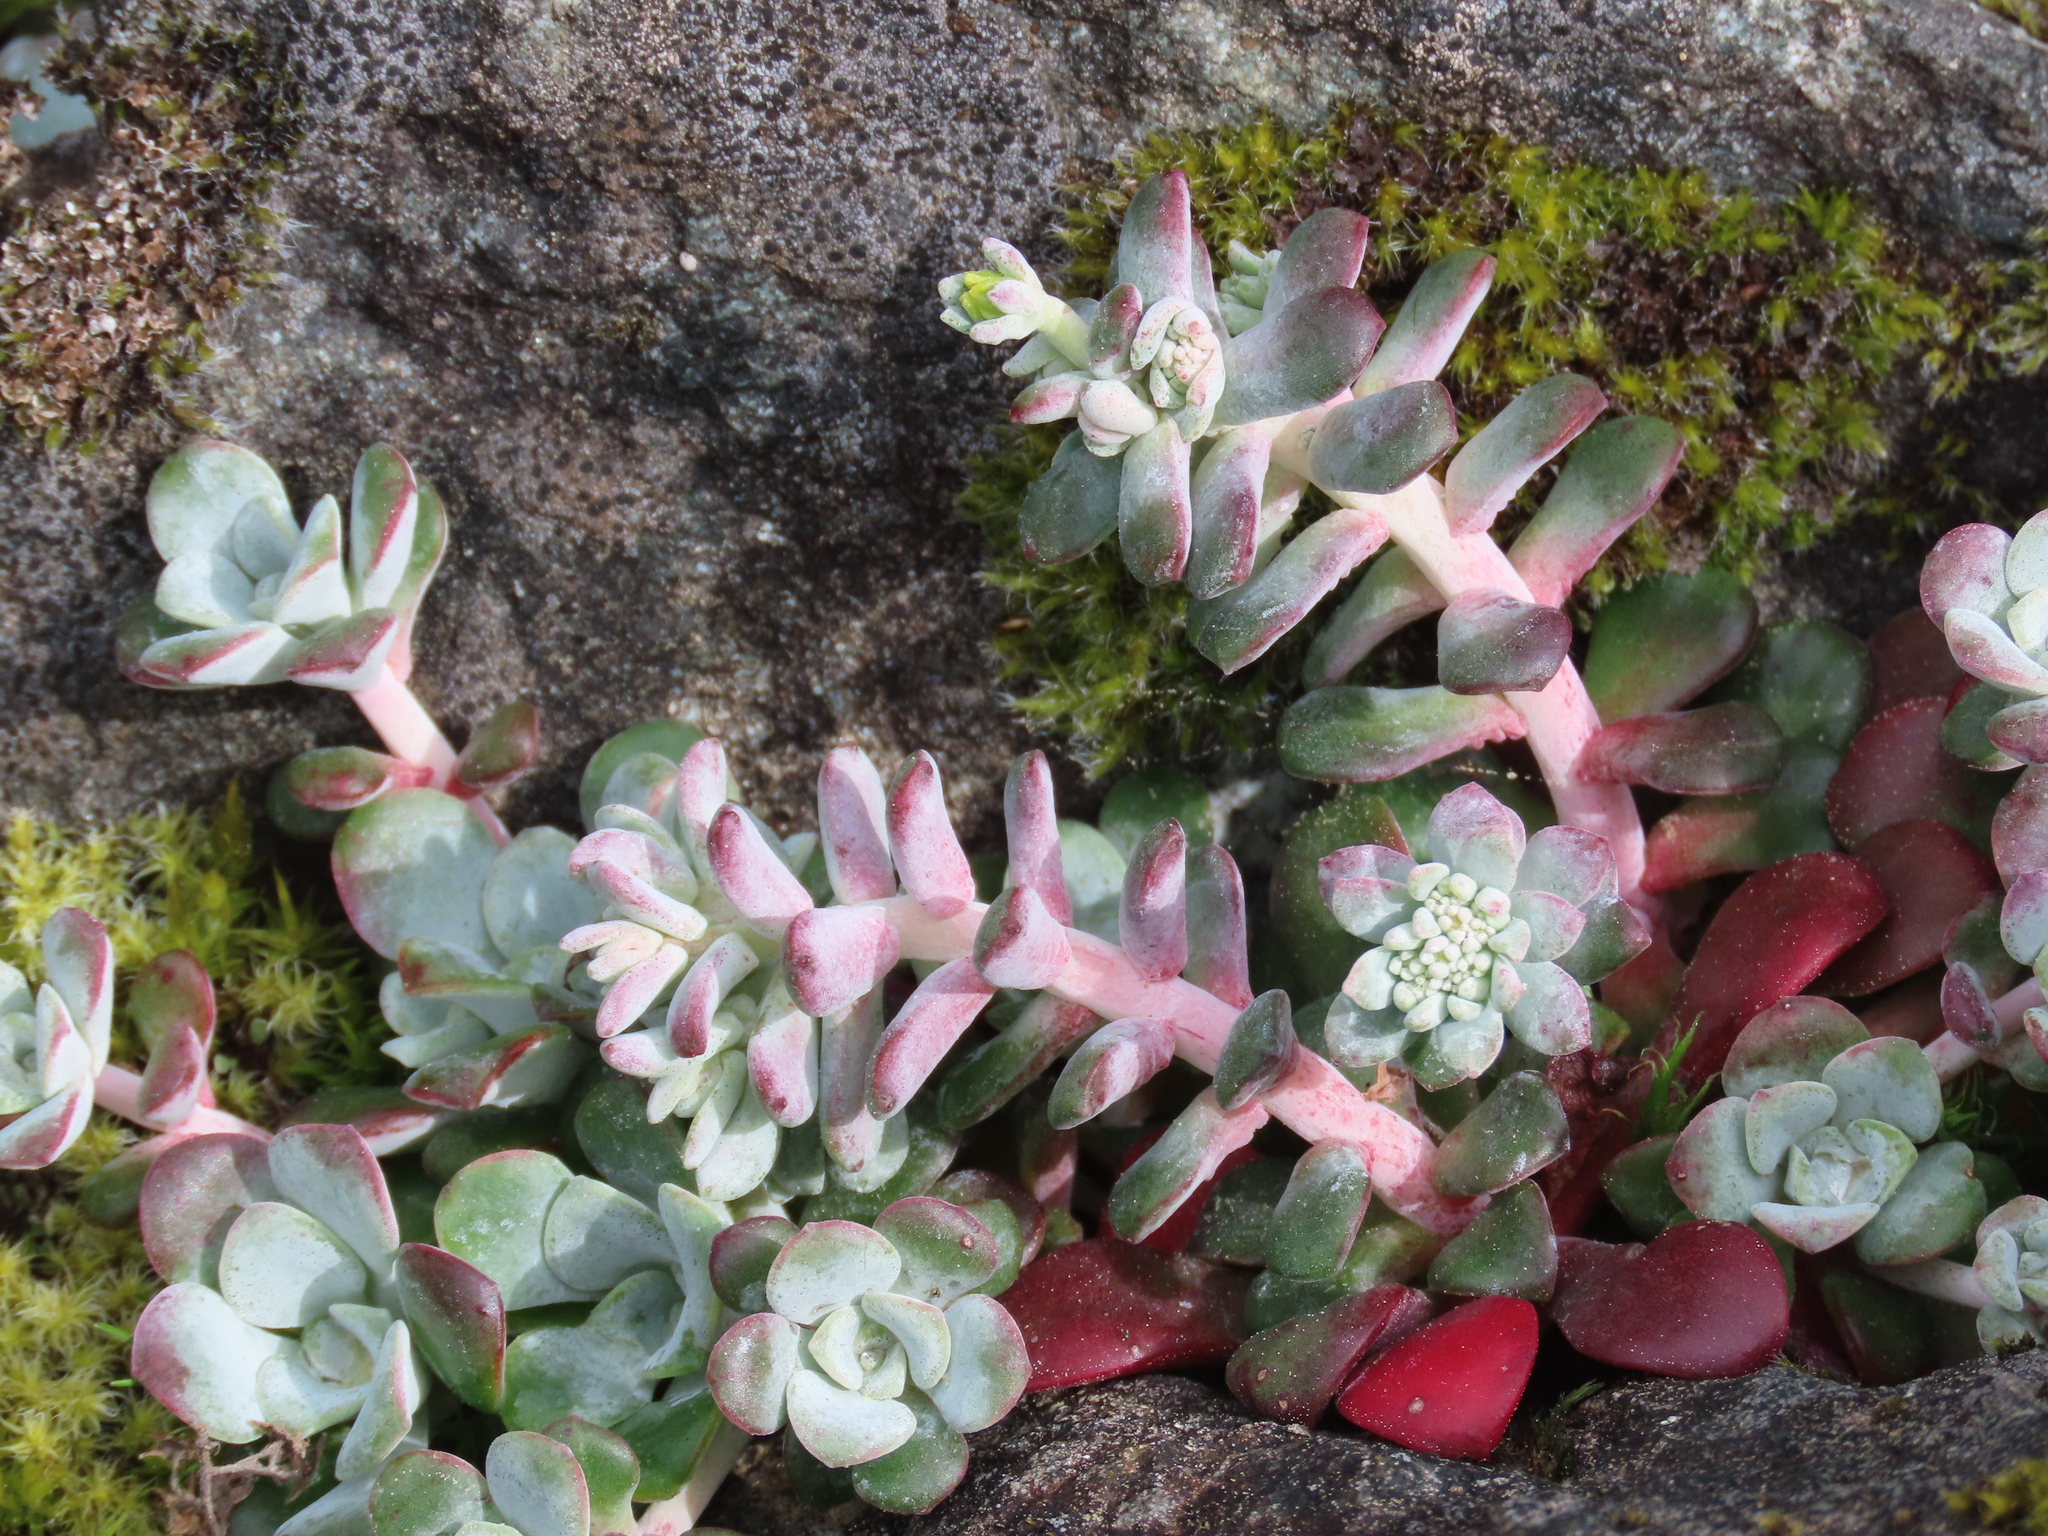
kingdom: Plantae
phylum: Tracheophyta
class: Magnoliopsida
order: Saxifragales
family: Crassulaceae
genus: Sedum
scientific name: Sedum spathulifolium
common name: Colorado stonecrop
